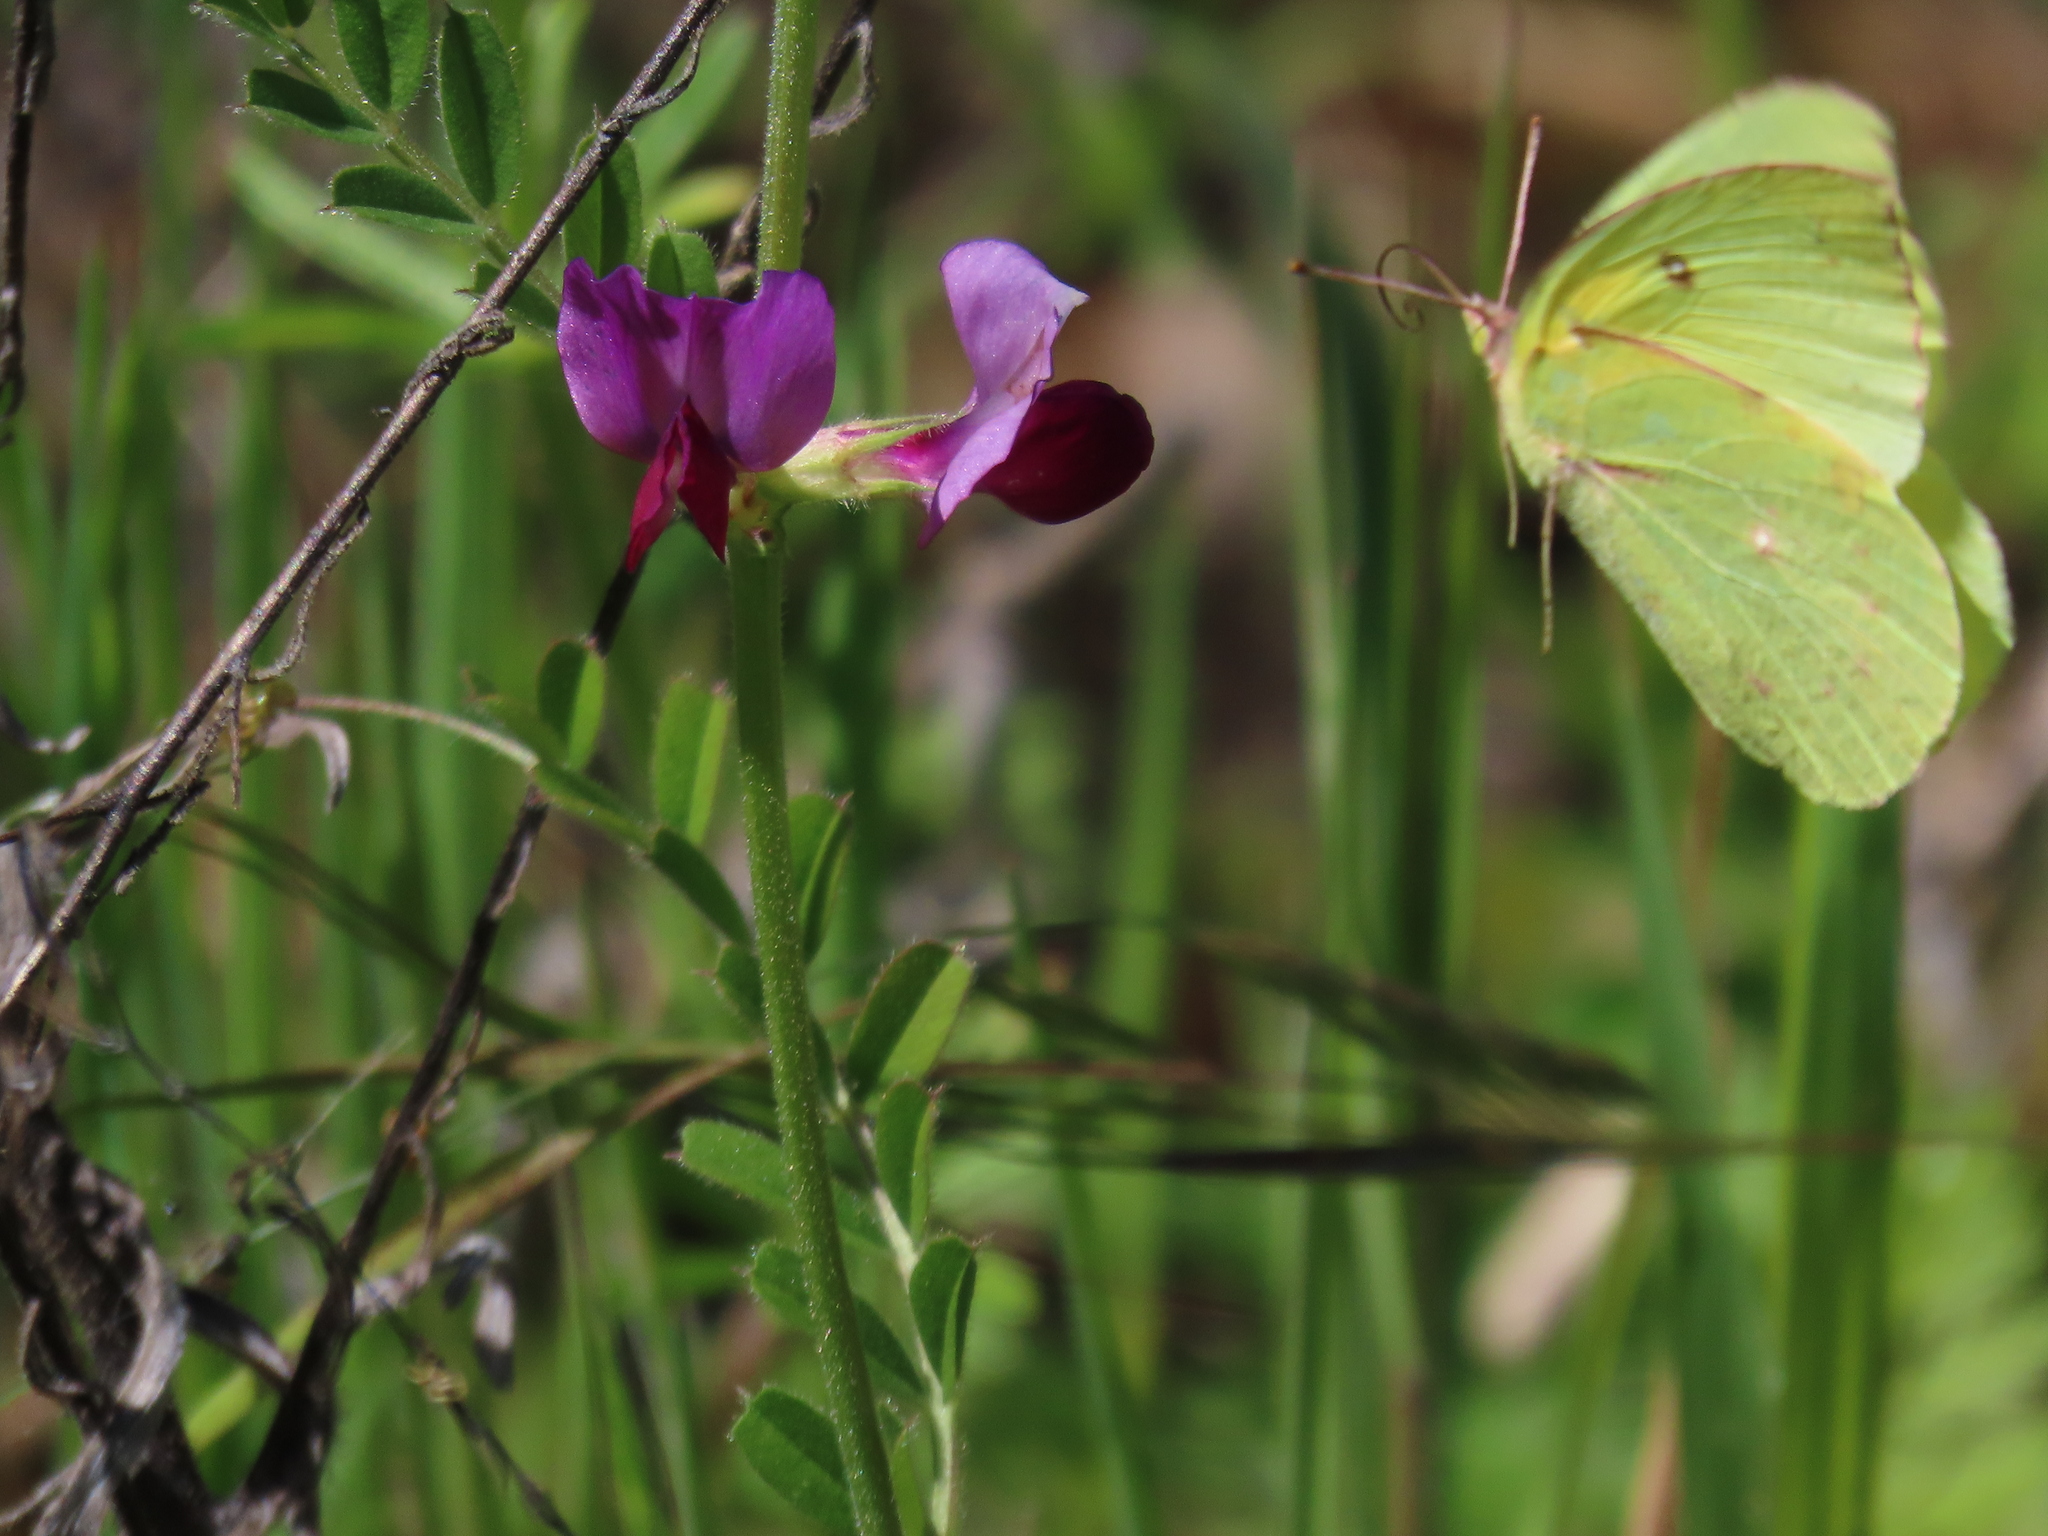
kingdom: Animalia
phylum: Arthropoda
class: Insecta
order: Lepidoptera
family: Pieridae
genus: Zerene
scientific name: Zerene eurydice
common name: California dogface
